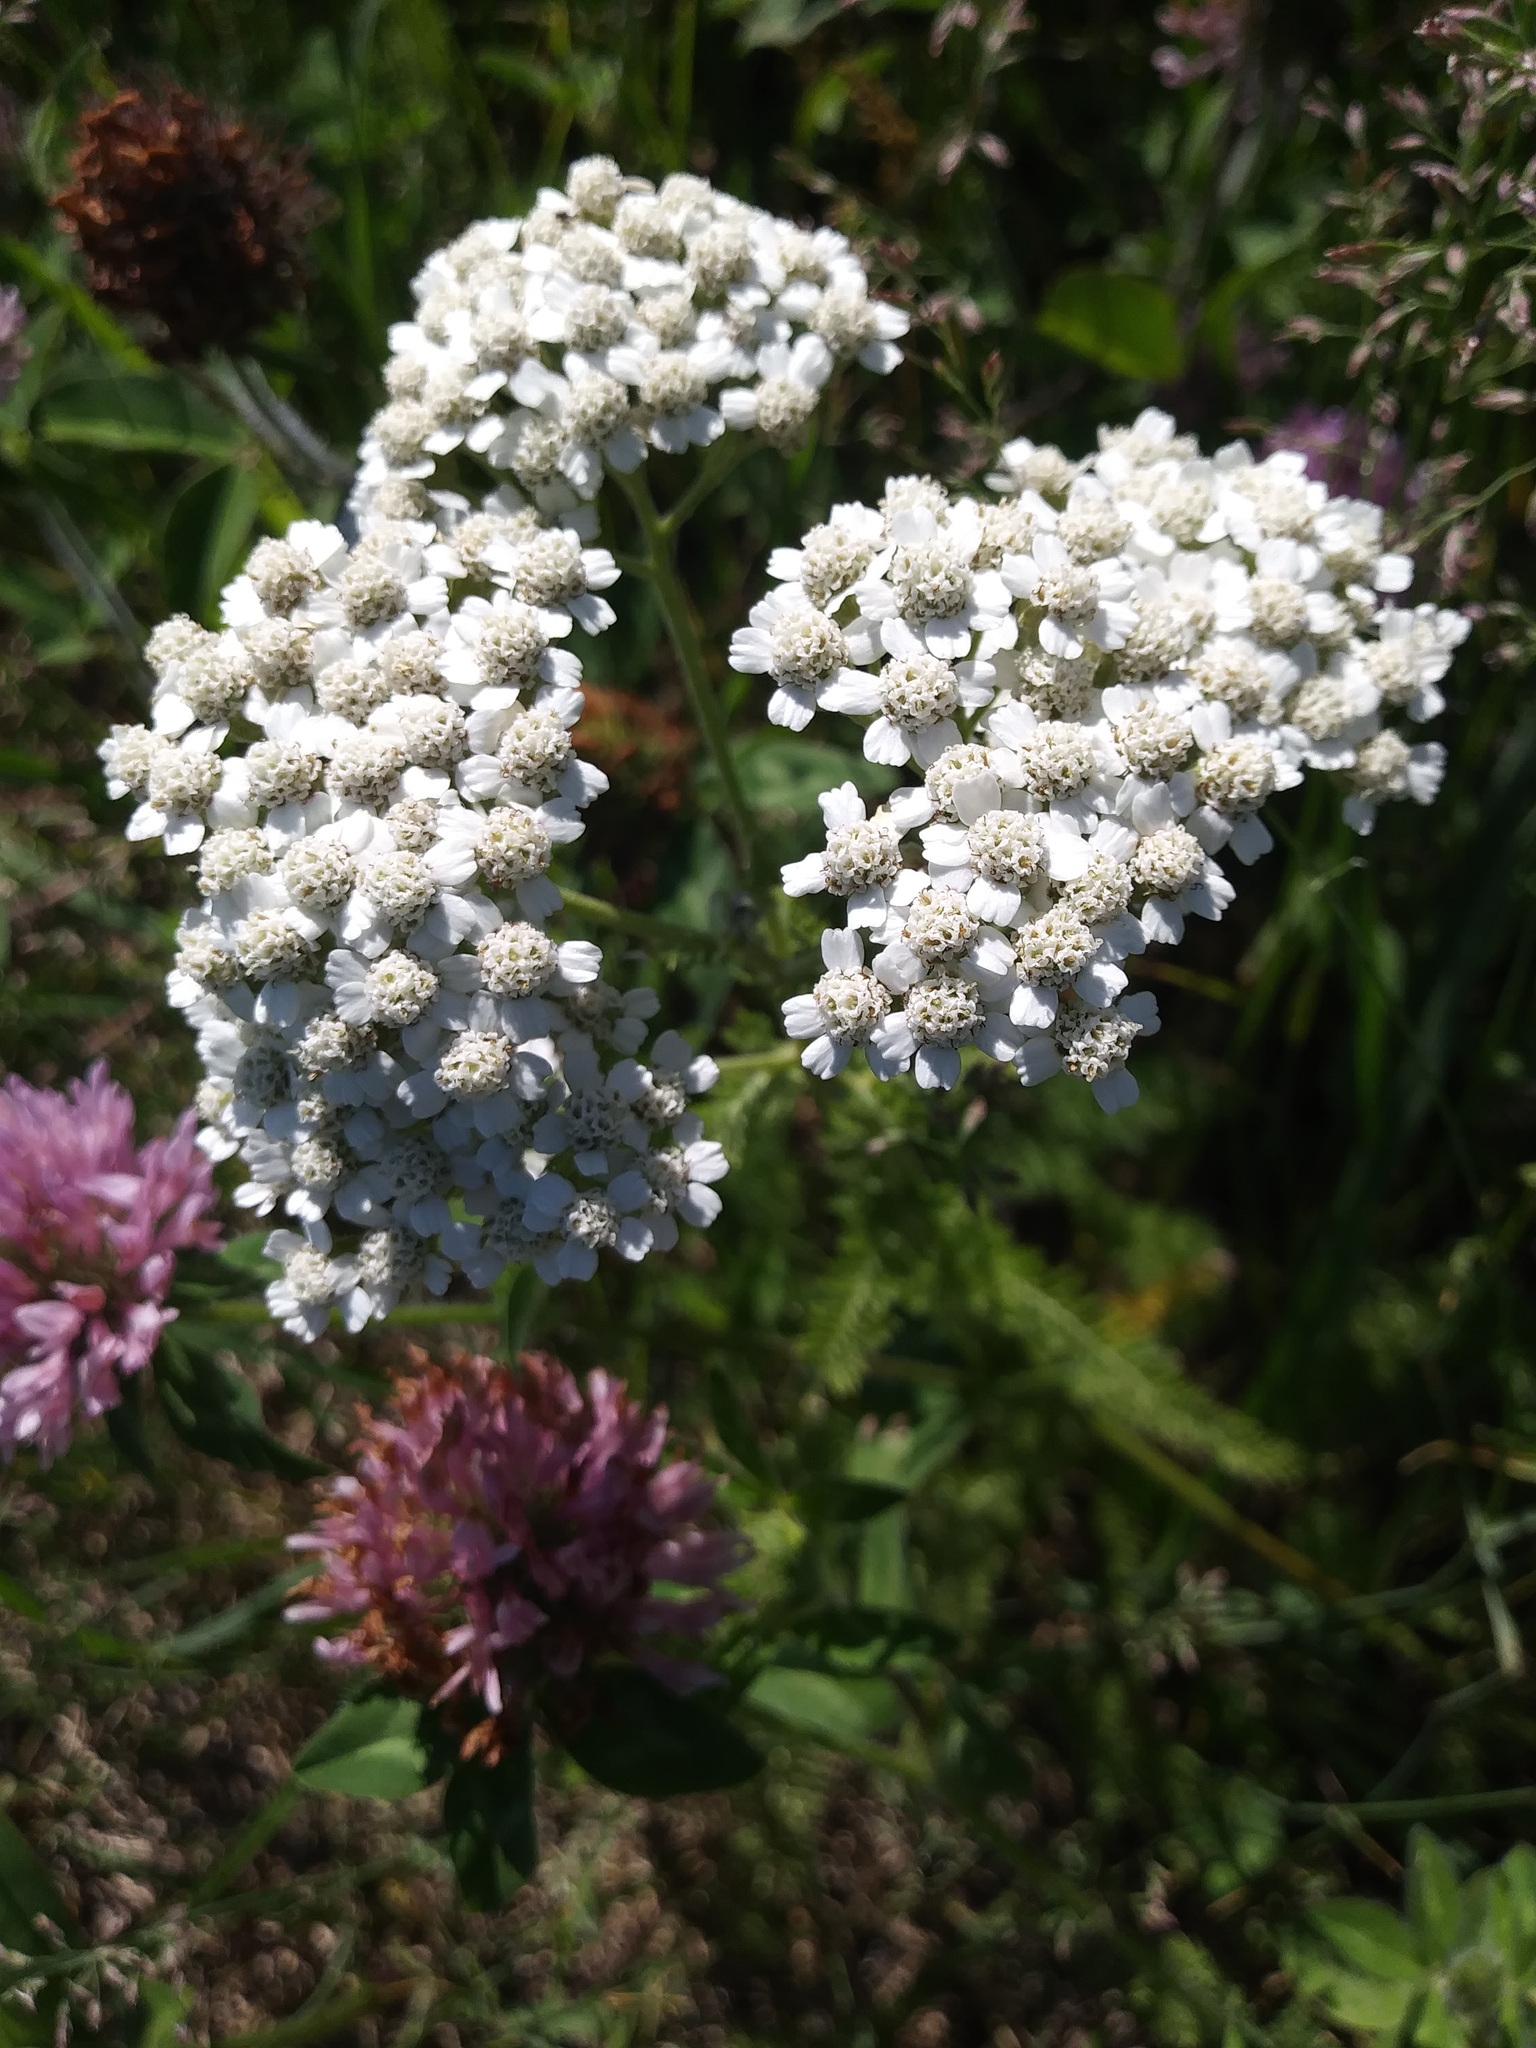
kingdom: Plantae
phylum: Tracheophyta
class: Magnoliopsida
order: Asterales
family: Asteraceae
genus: Achillea
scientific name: Achillea millefolium
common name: Yarrow
